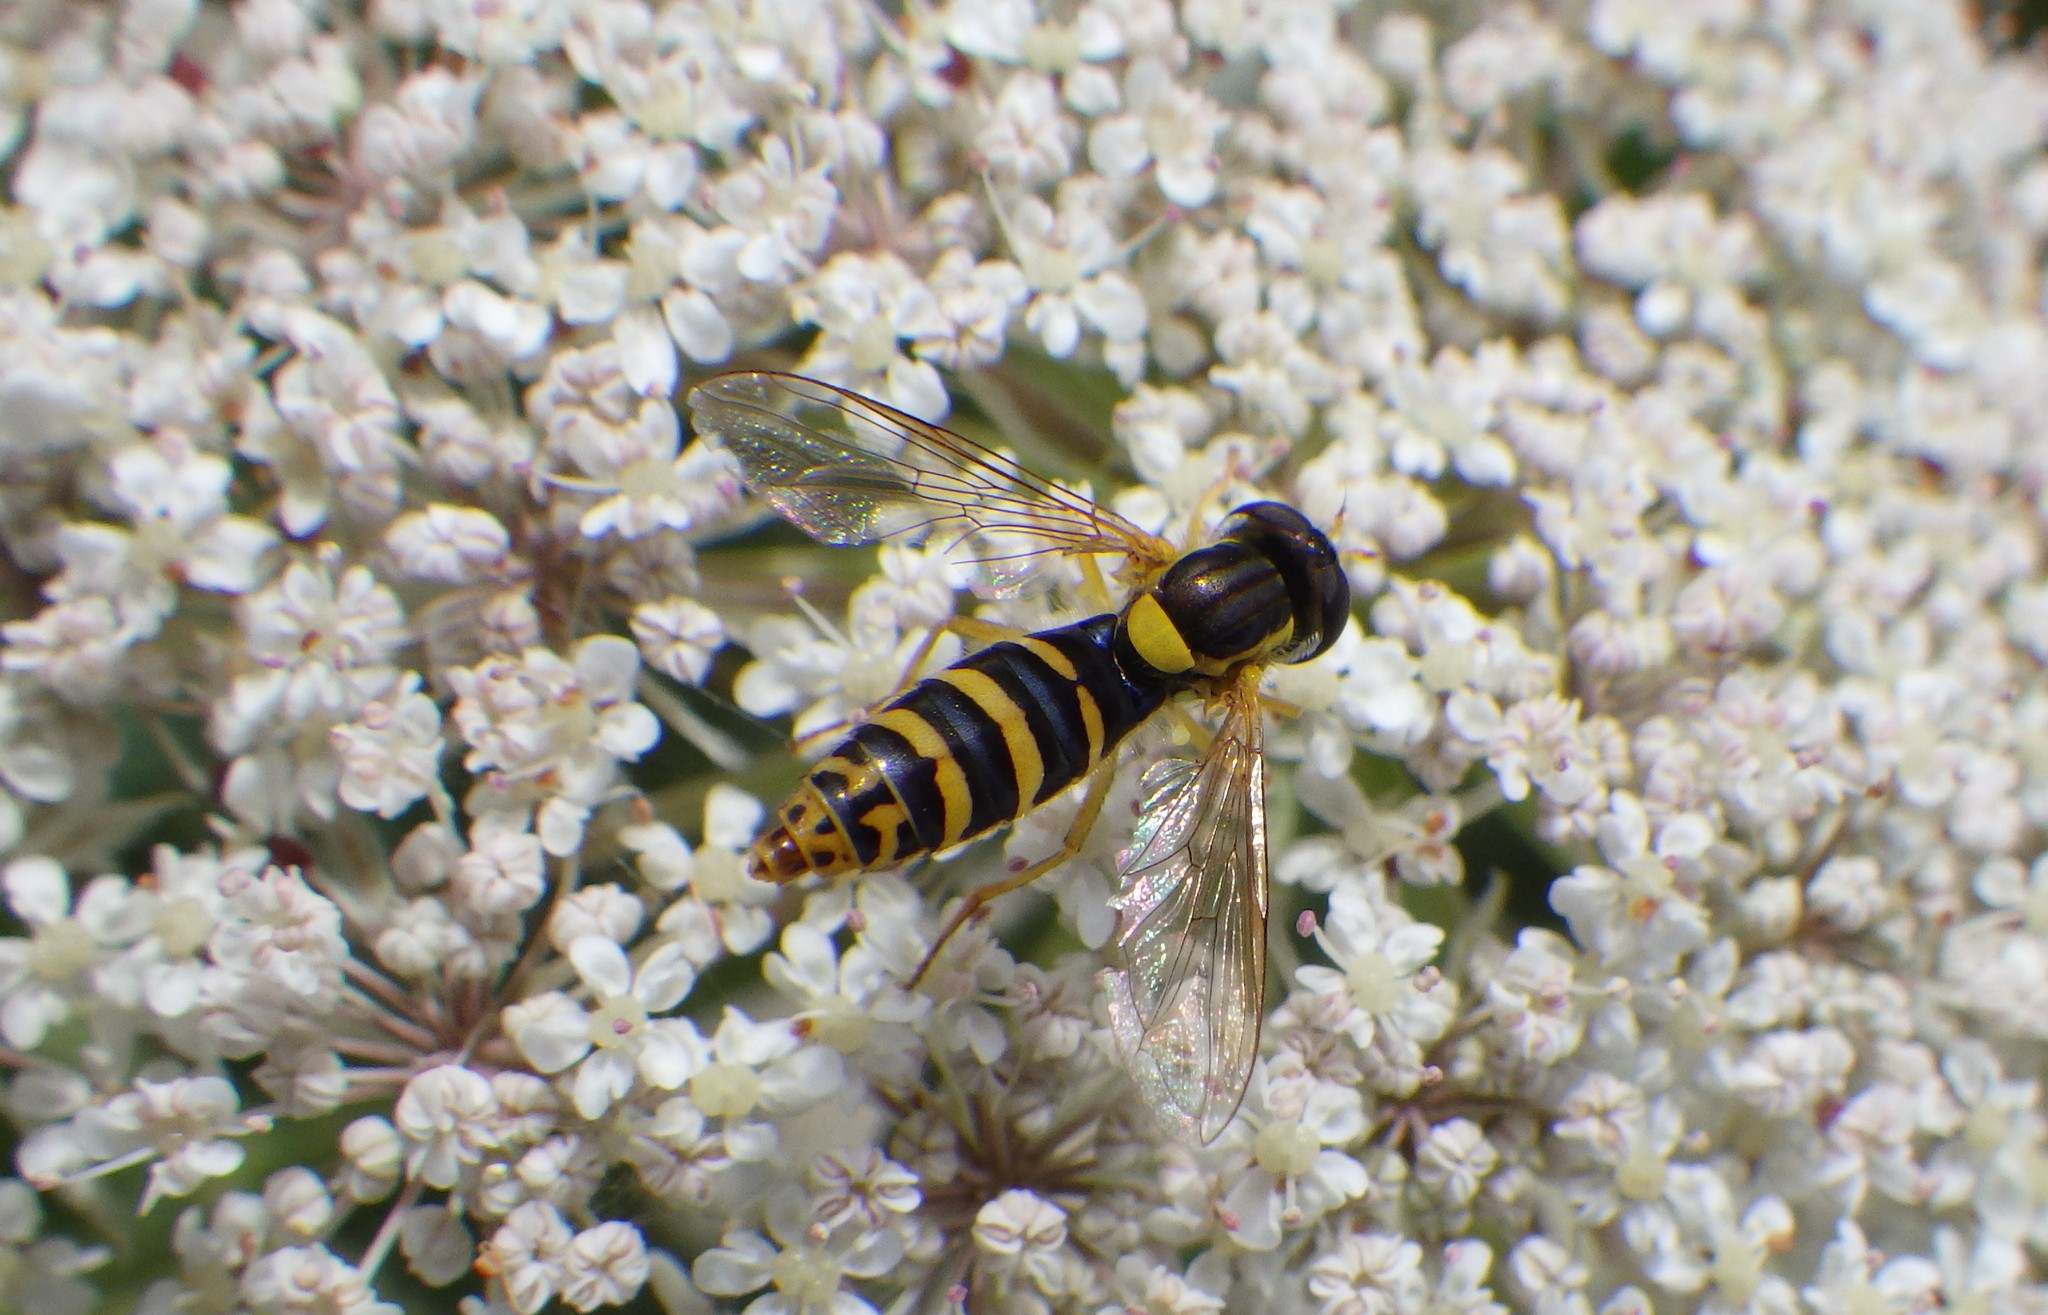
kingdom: Animalia
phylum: Arthropoda
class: Insecta
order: Diptera
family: Syrphidae
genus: Sphaerophoria
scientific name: Sphaerophoria
